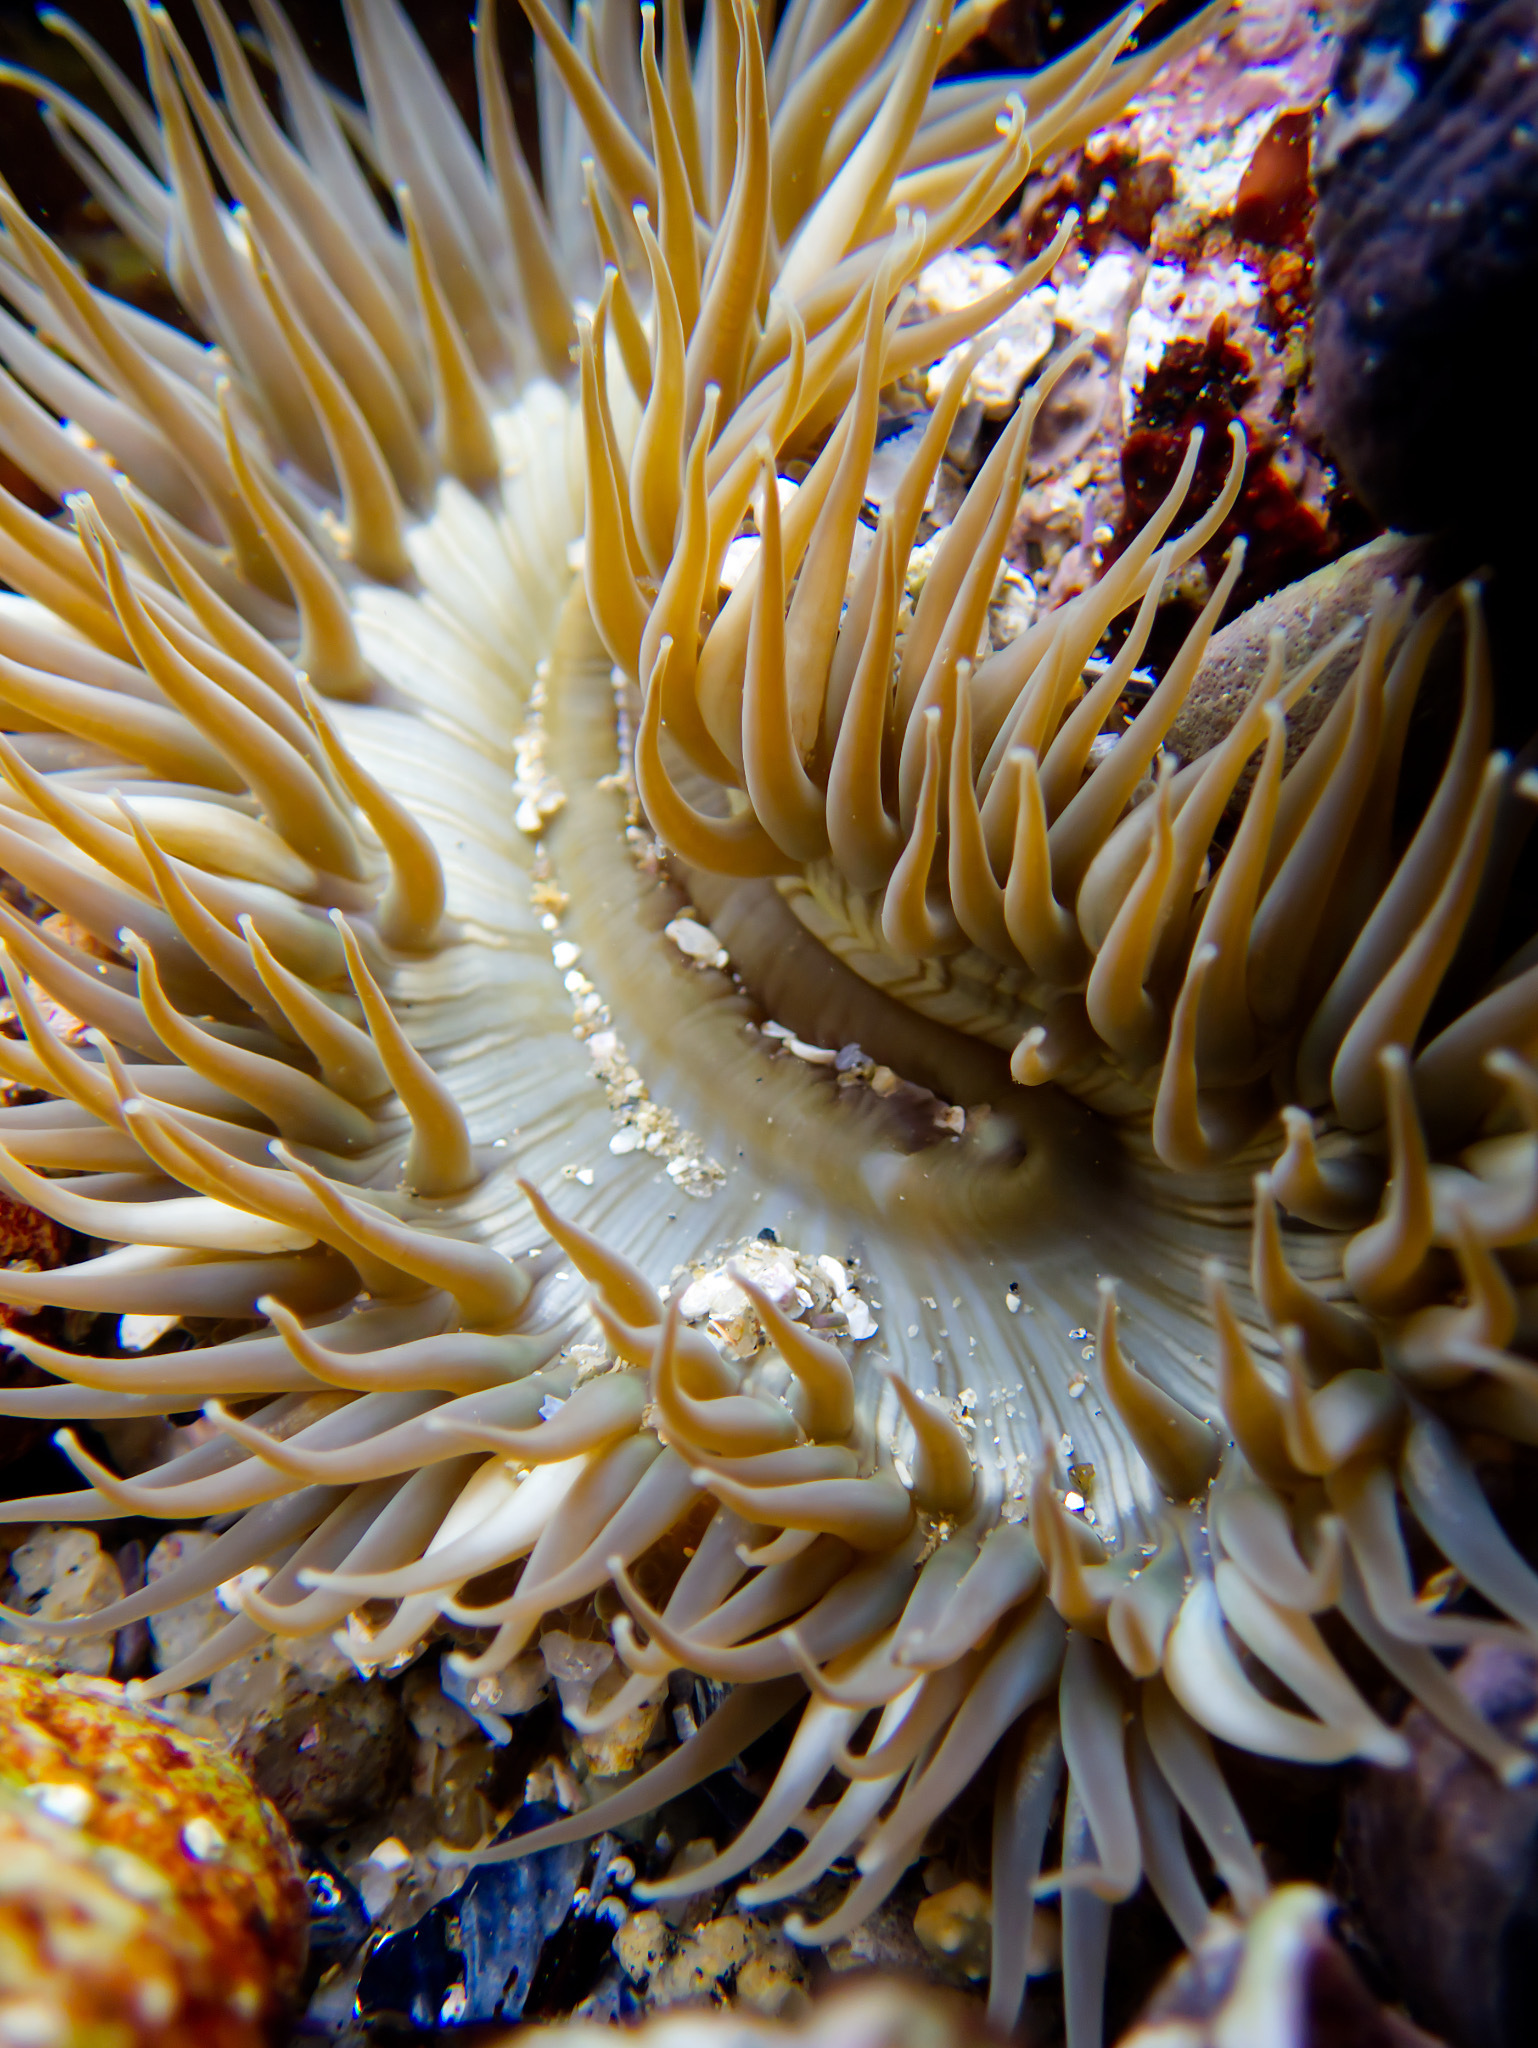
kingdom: Animalia
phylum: Cnidaria
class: Anthozoa
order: Actiniaria
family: Actiniidae
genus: Anthopleura
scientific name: Anthopleura sola
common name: Sun anemone
